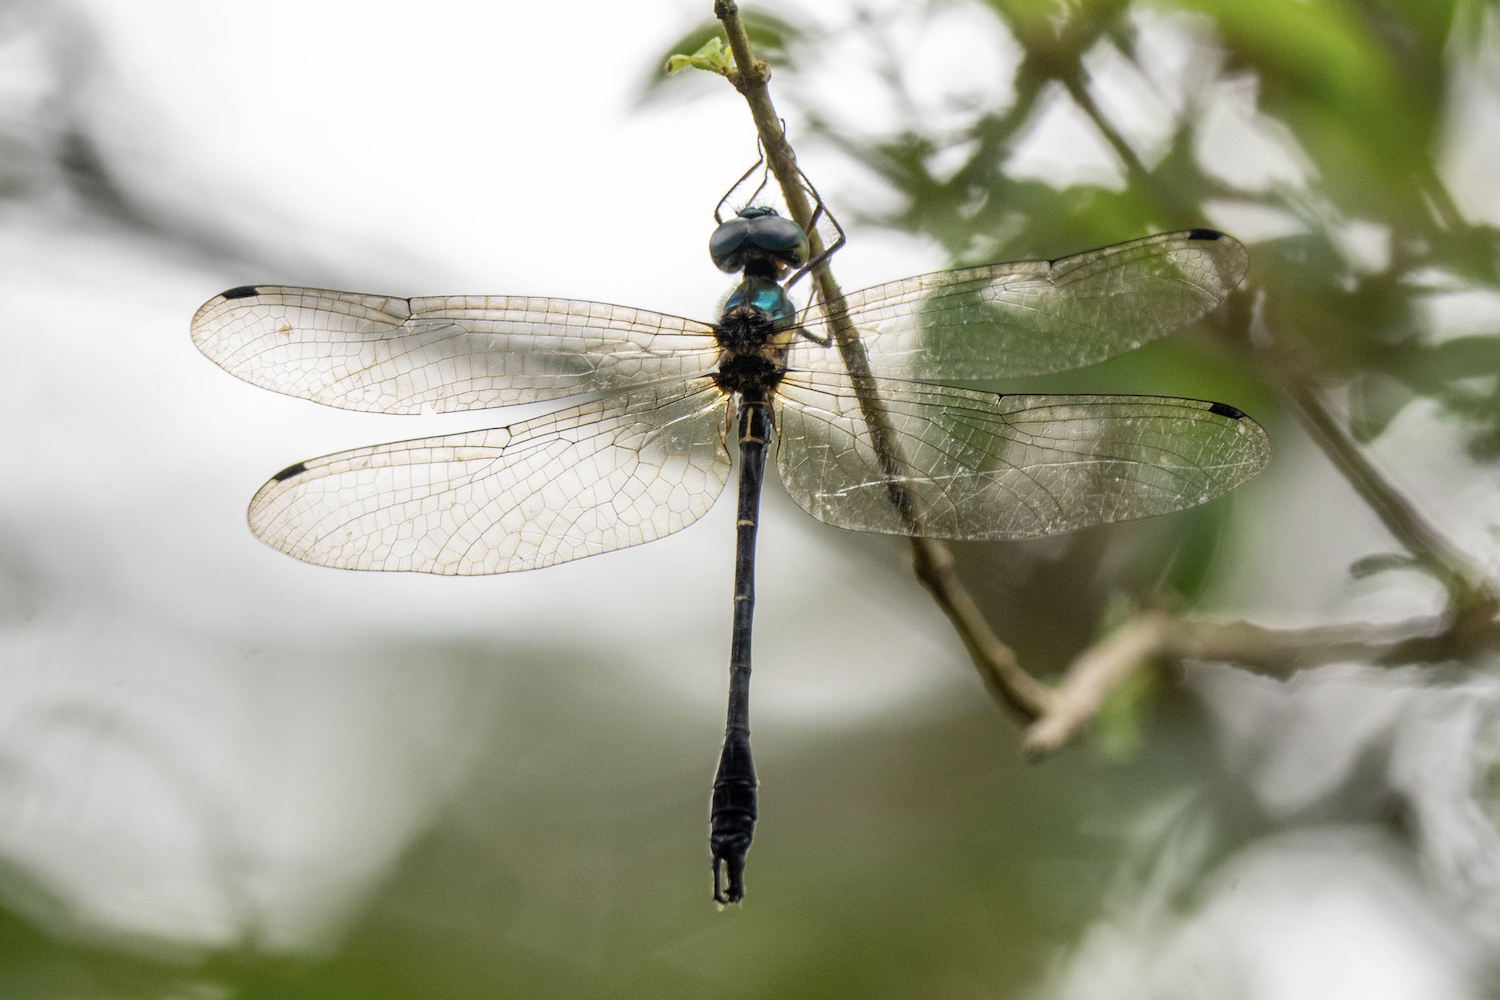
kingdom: Animalia
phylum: Arthropoda
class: Insecta
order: Odonata
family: Synthemistidae
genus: Idionyx
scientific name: Idionyx victor
